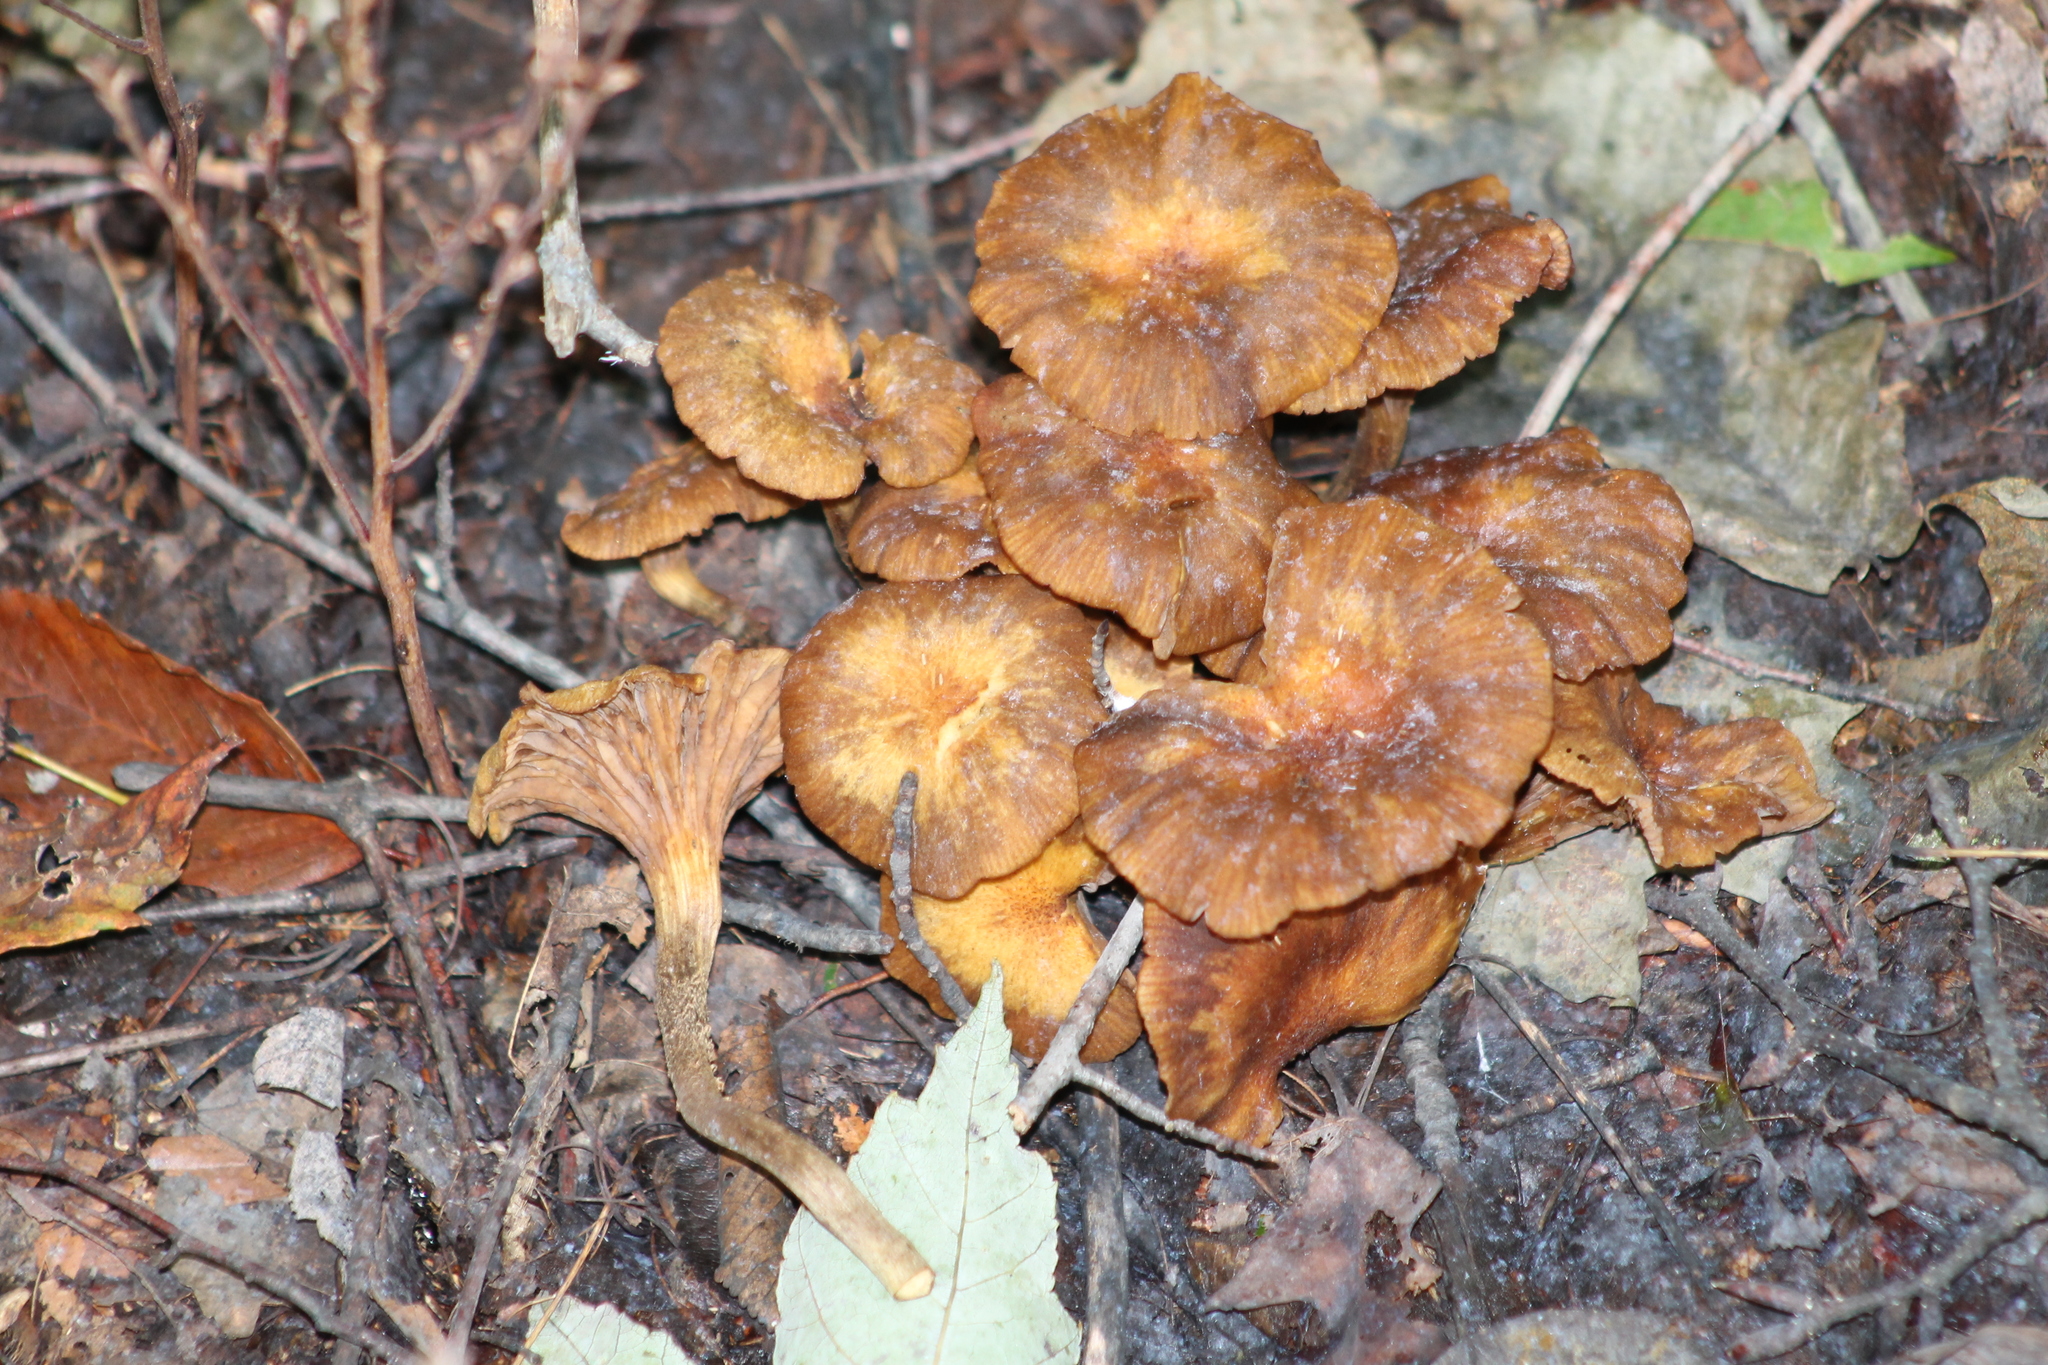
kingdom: Fungi
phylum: Basidiomycota
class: Agaricomycetes
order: Agaricales
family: Omphalotaceae
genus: Omphalotus
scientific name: Omphalotus illudens
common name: Jack o lantern
